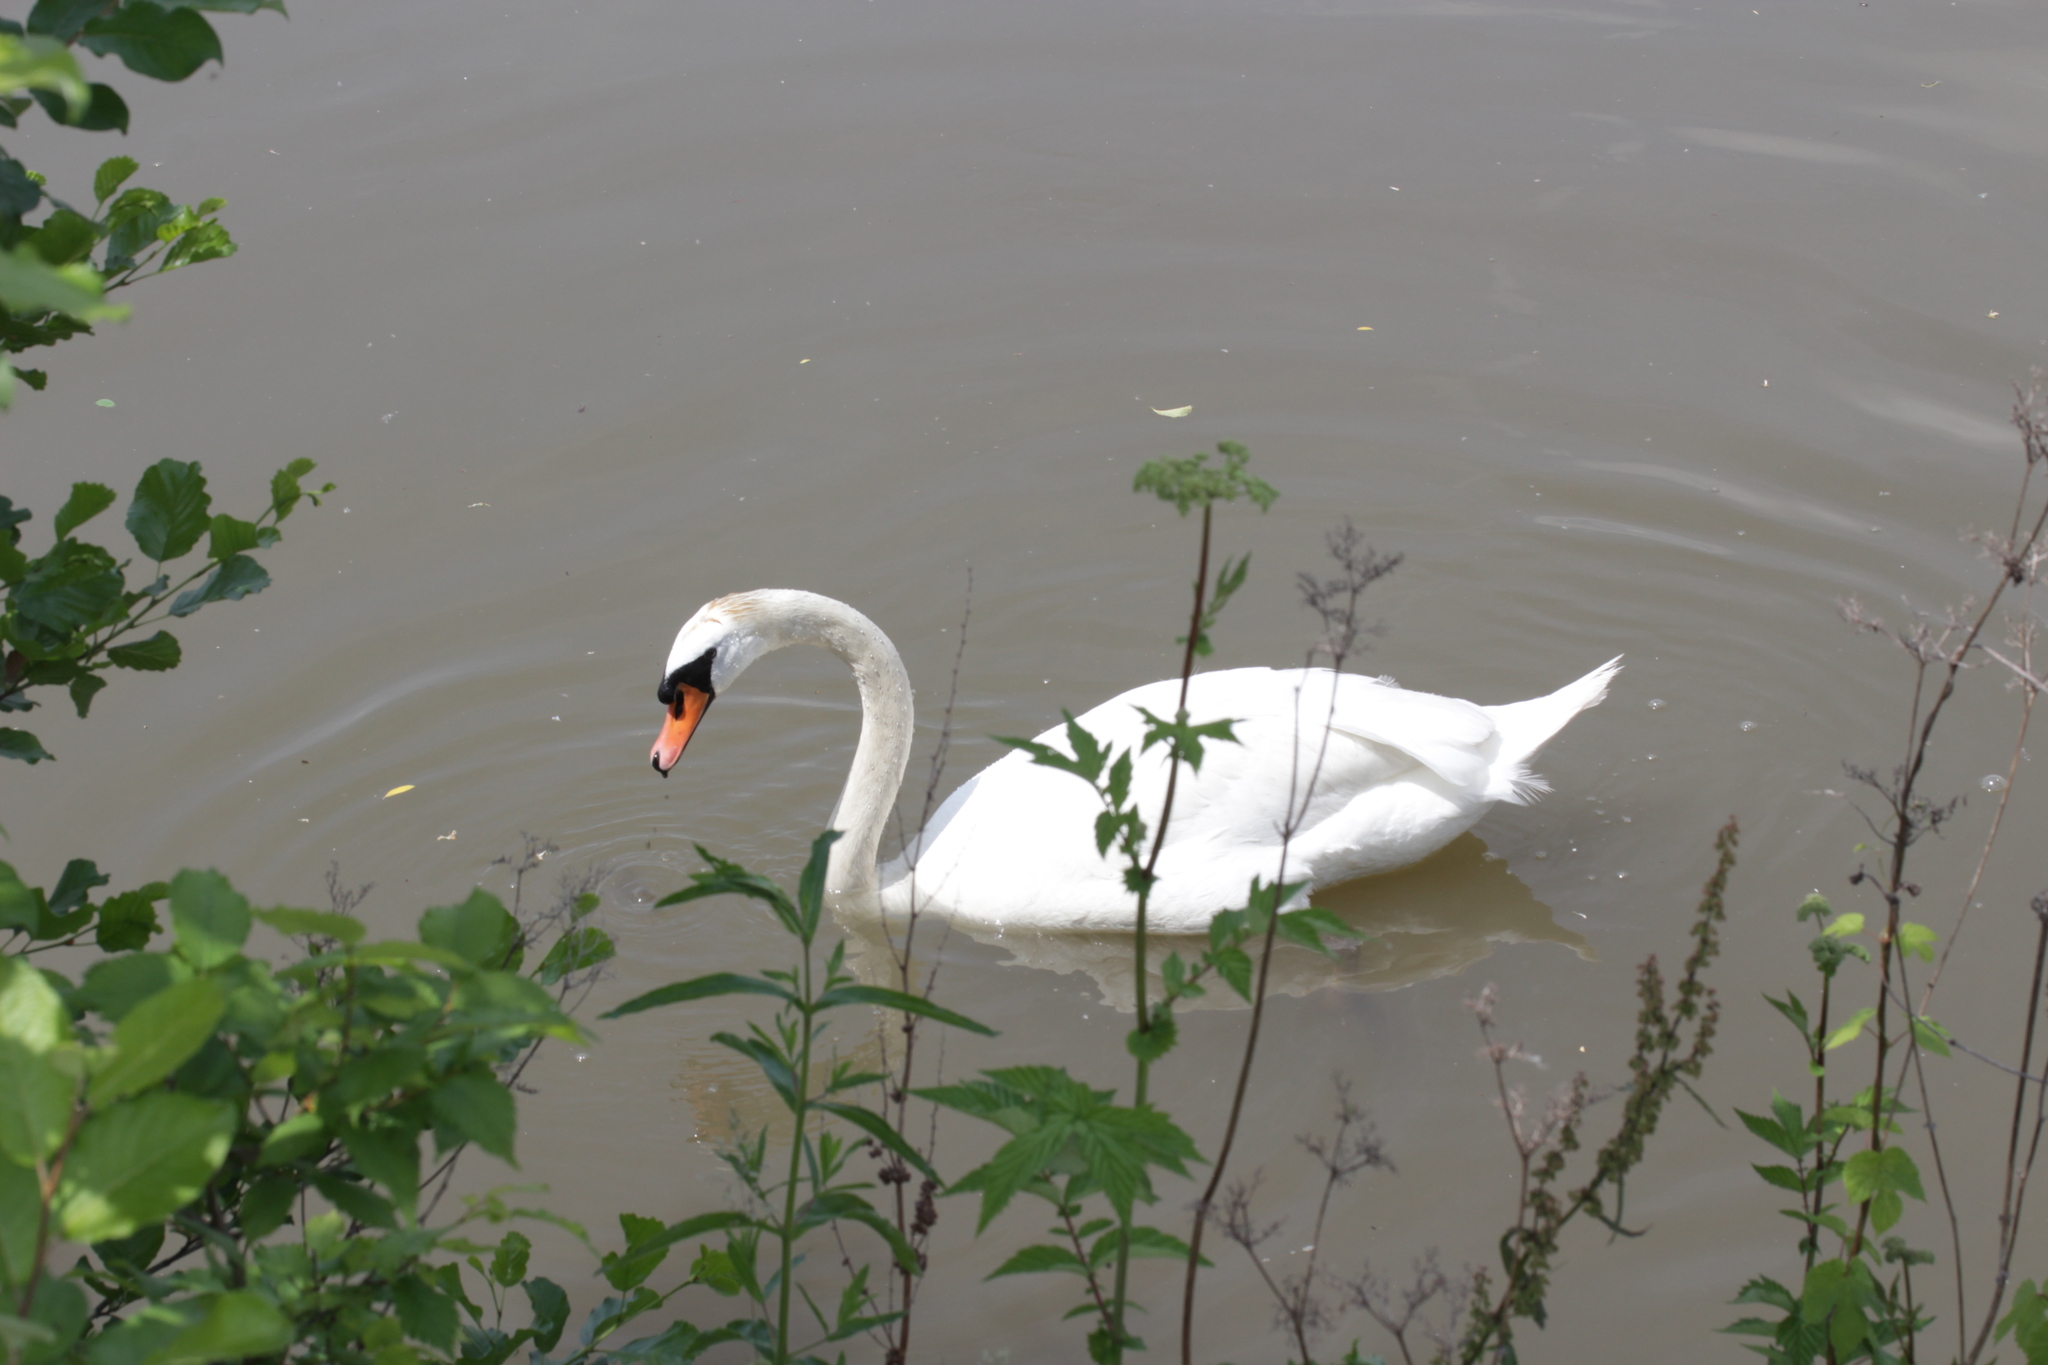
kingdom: Animalia
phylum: Chordata
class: Aves
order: Anseriformes
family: Anatidae
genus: Cygnus
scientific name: Cygnus olor
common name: Mute swan
